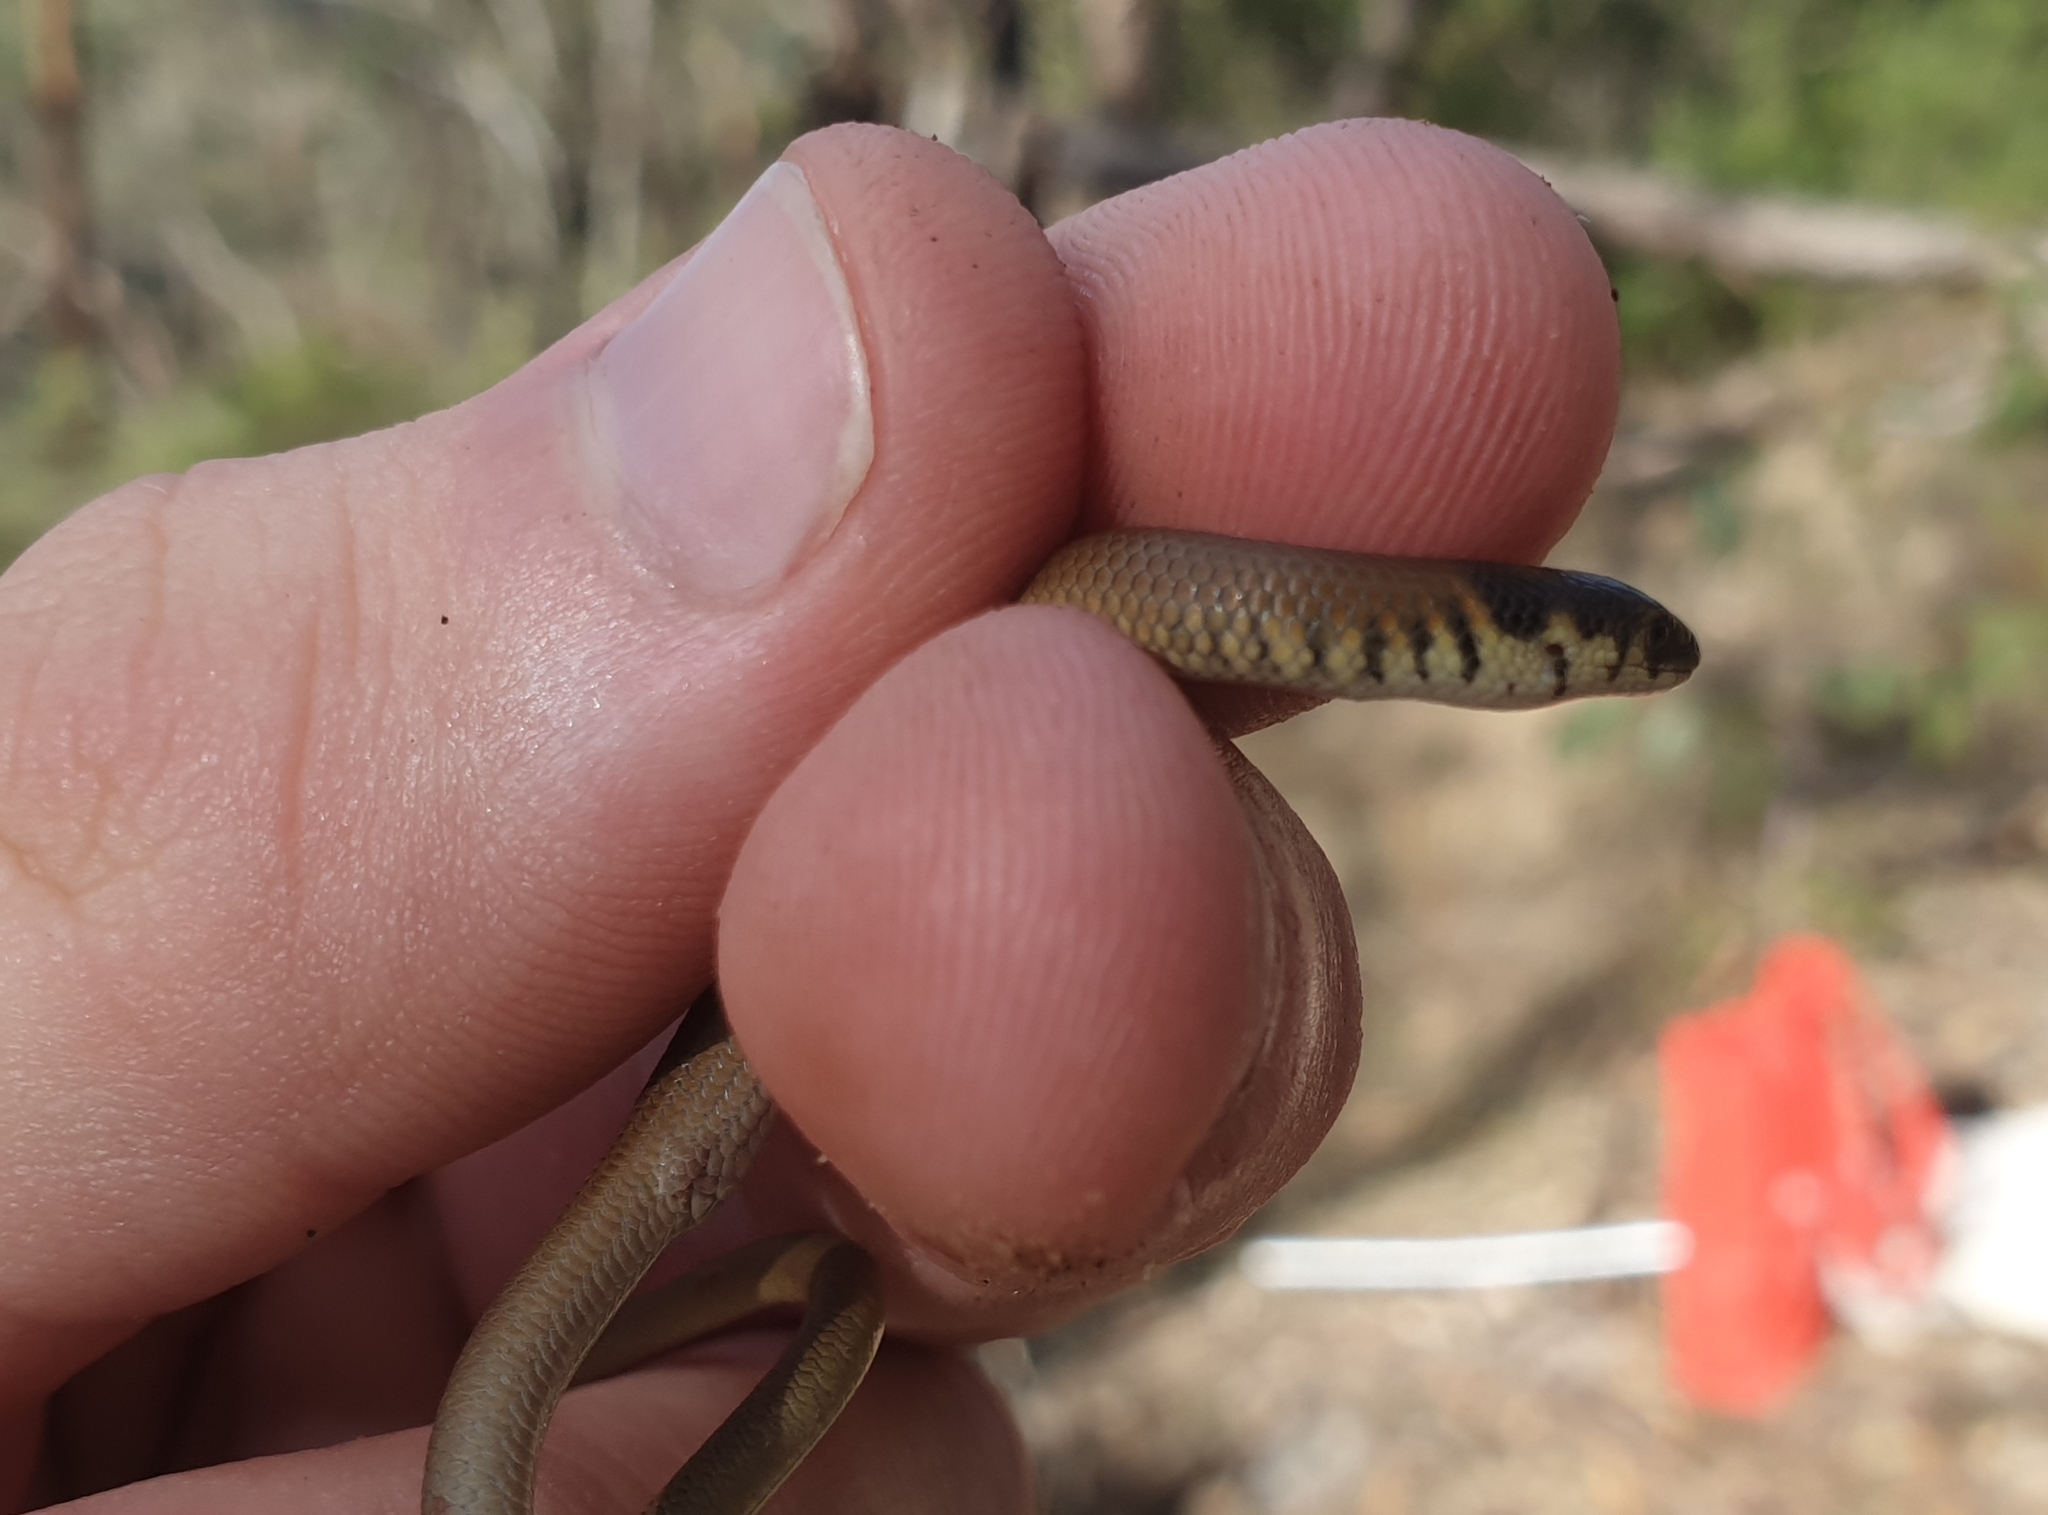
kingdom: Animalia
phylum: Chordata
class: Squamata
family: Pygopodidae
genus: Delma
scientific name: Delma molleri
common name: Gulfs delma
